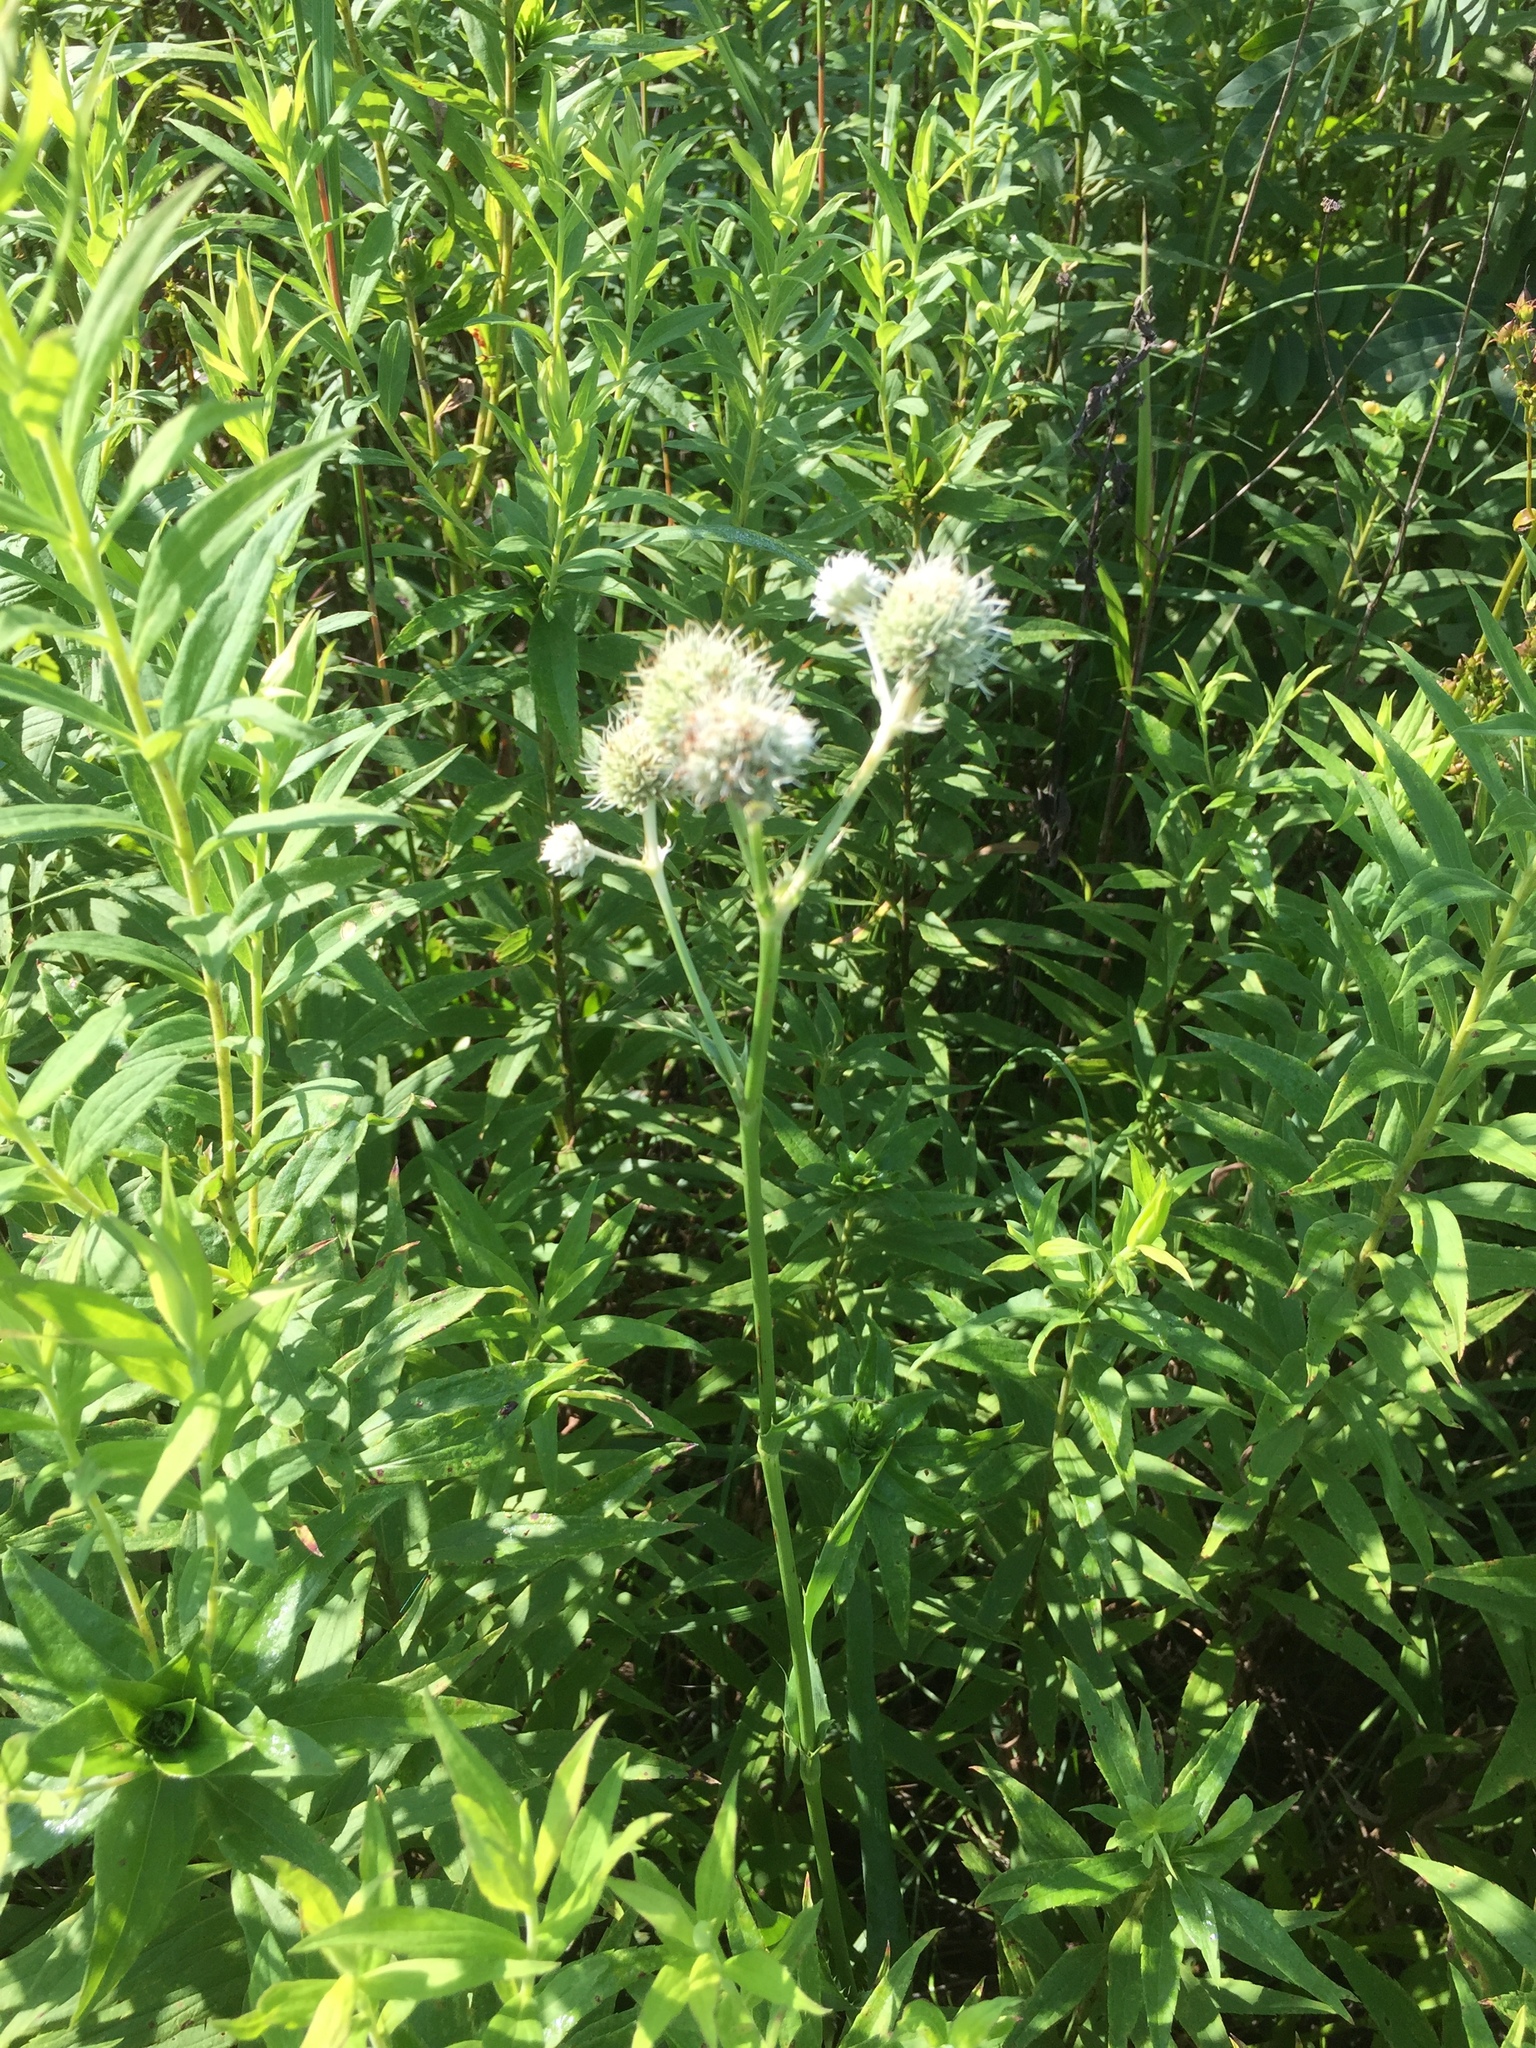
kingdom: Plantae
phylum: Tracheophyta
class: Magnoliopsida
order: Apiales
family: Apiaceae
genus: Eryngium
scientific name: Eryngium yuccifolium
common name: Button eryngo
